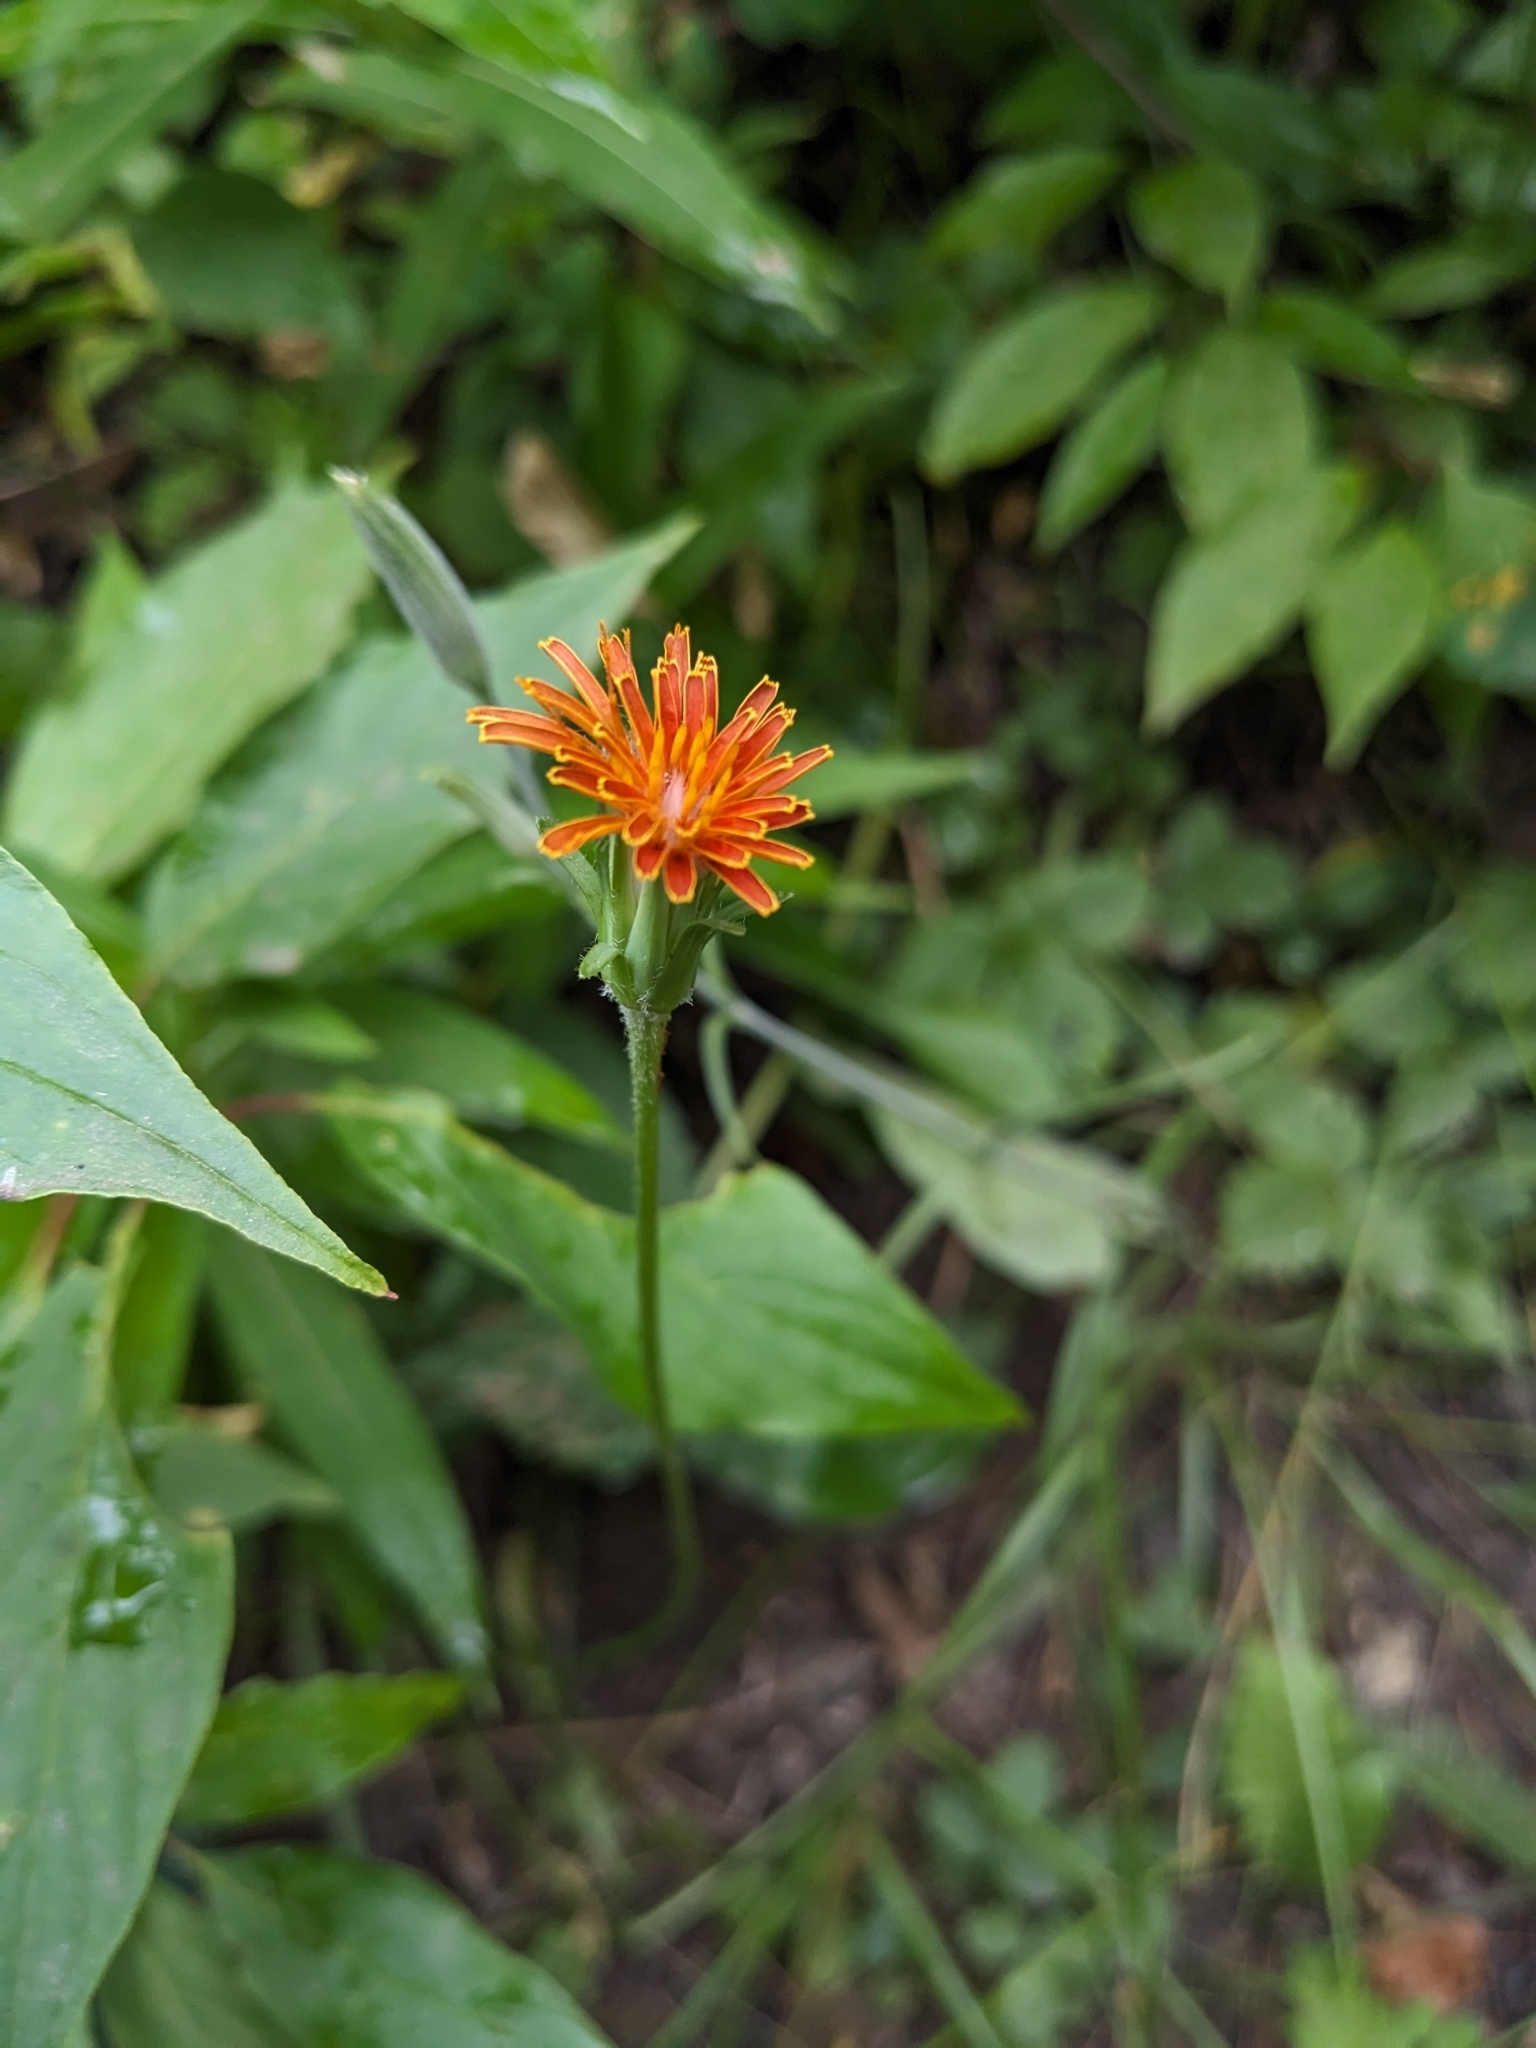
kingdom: Plantae
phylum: Tracheophyta
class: Magnoliopsida
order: Asterales
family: Asteraceae
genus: Agoseris
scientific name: Agoseris aurantiaca
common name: Mountain agoseris
